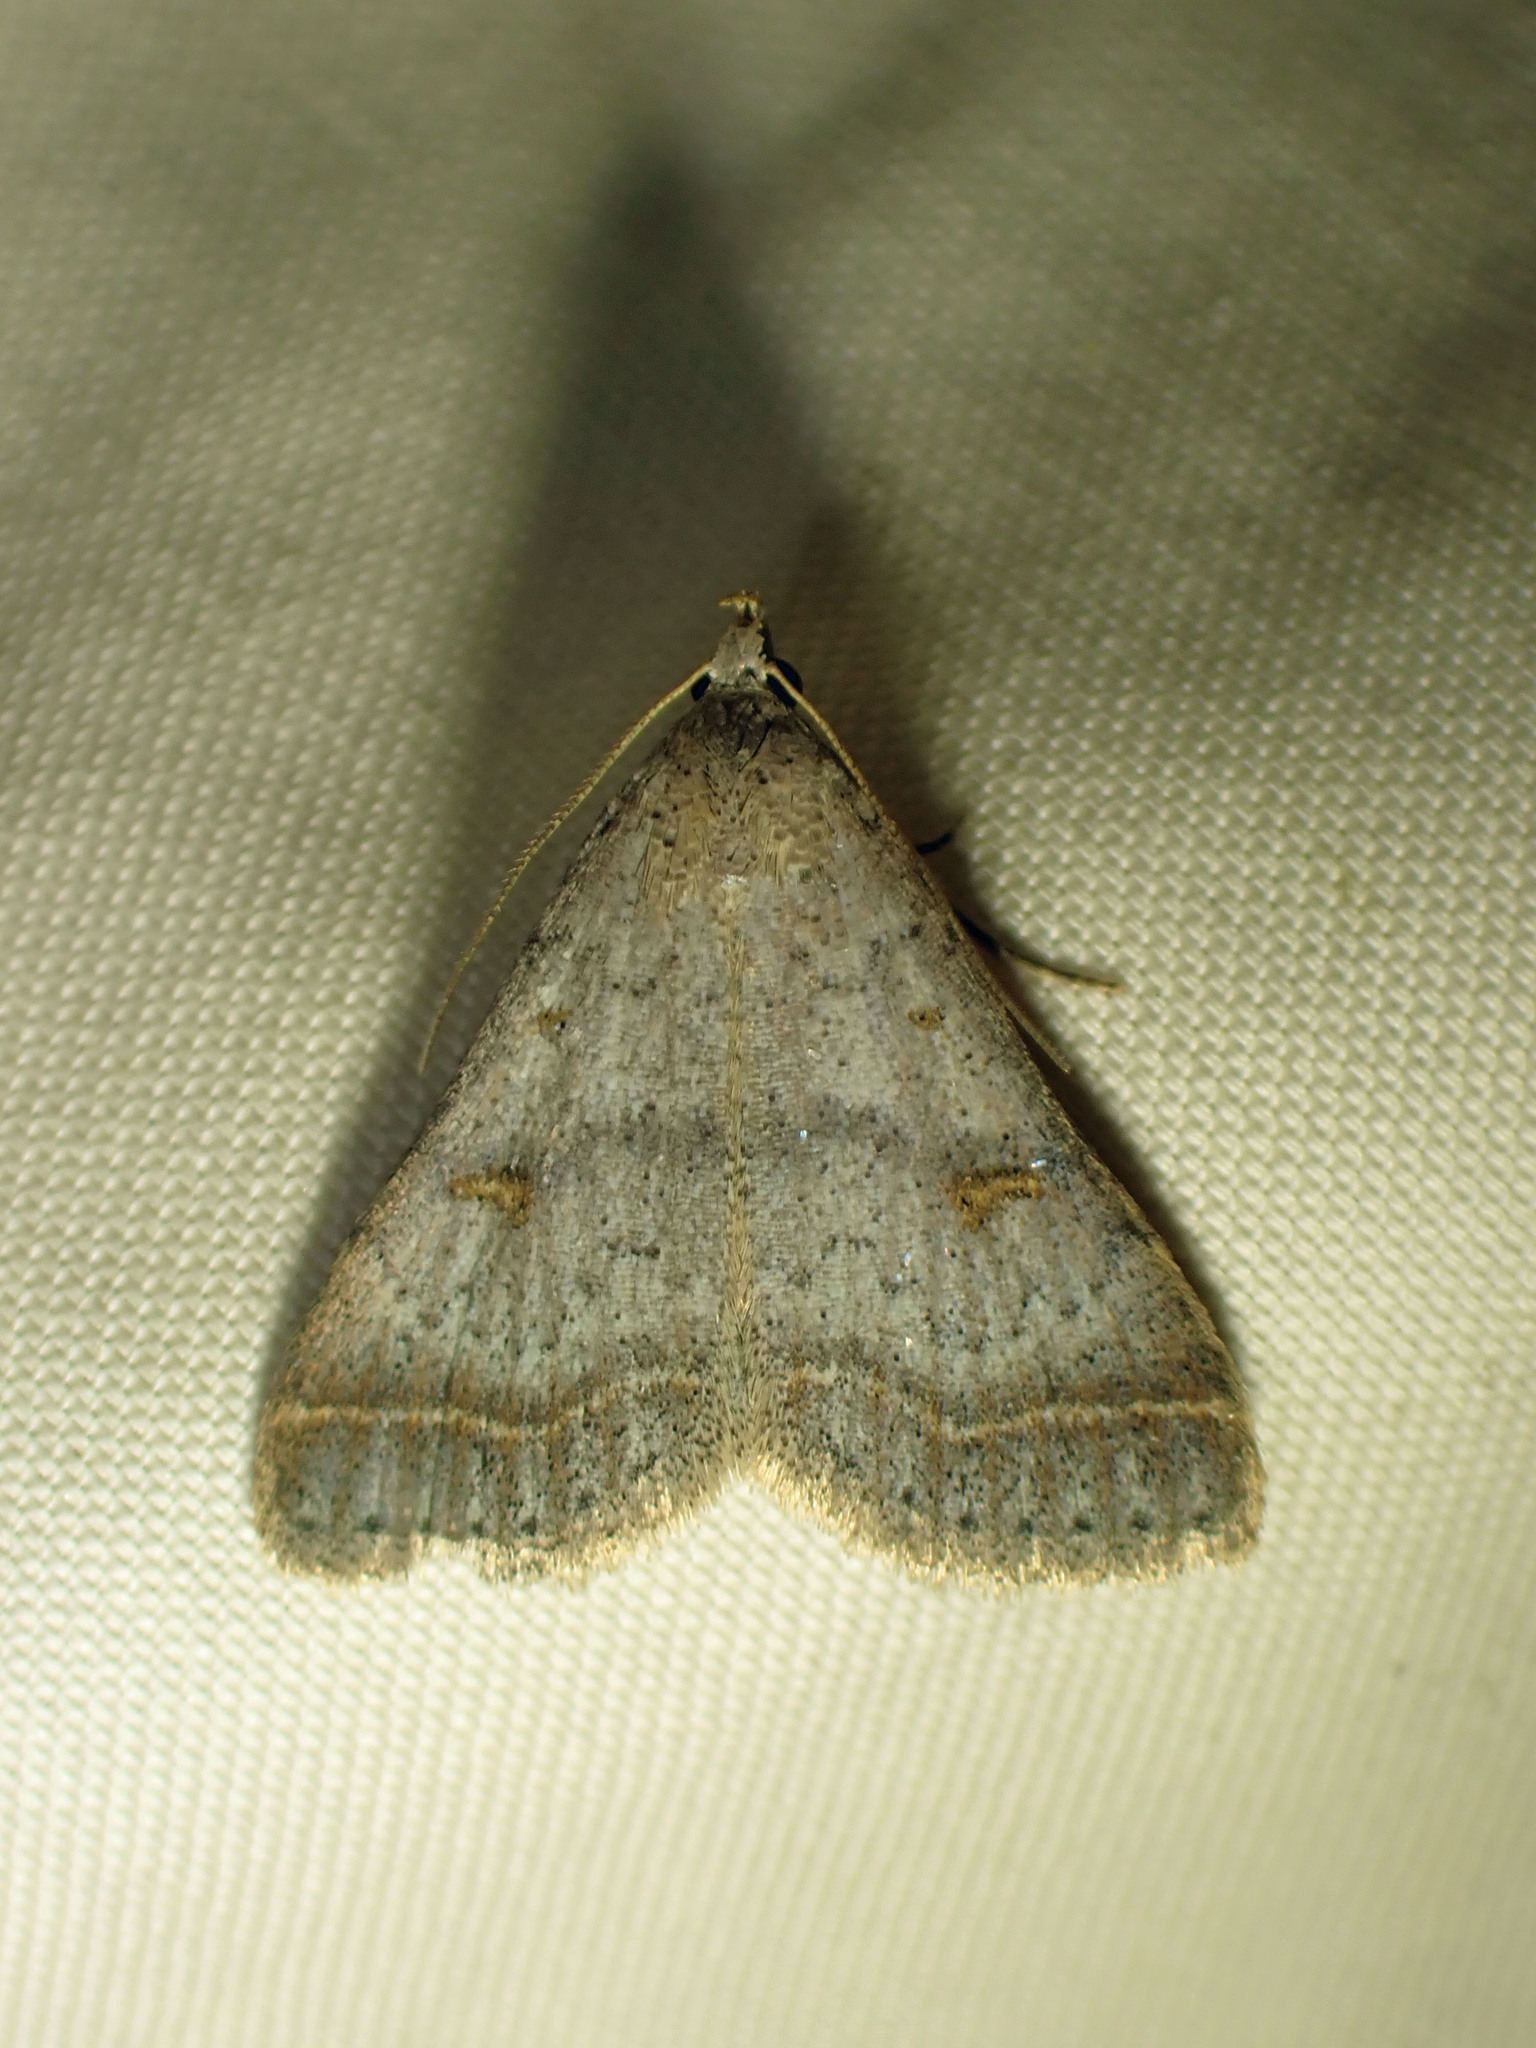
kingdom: Animalia
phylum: Arthropoda
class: Insecta
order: Lepidoptera
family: Erebidae
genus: Bleptina
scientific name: Bleptina caradrinalis
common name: Bent-winged owlet
